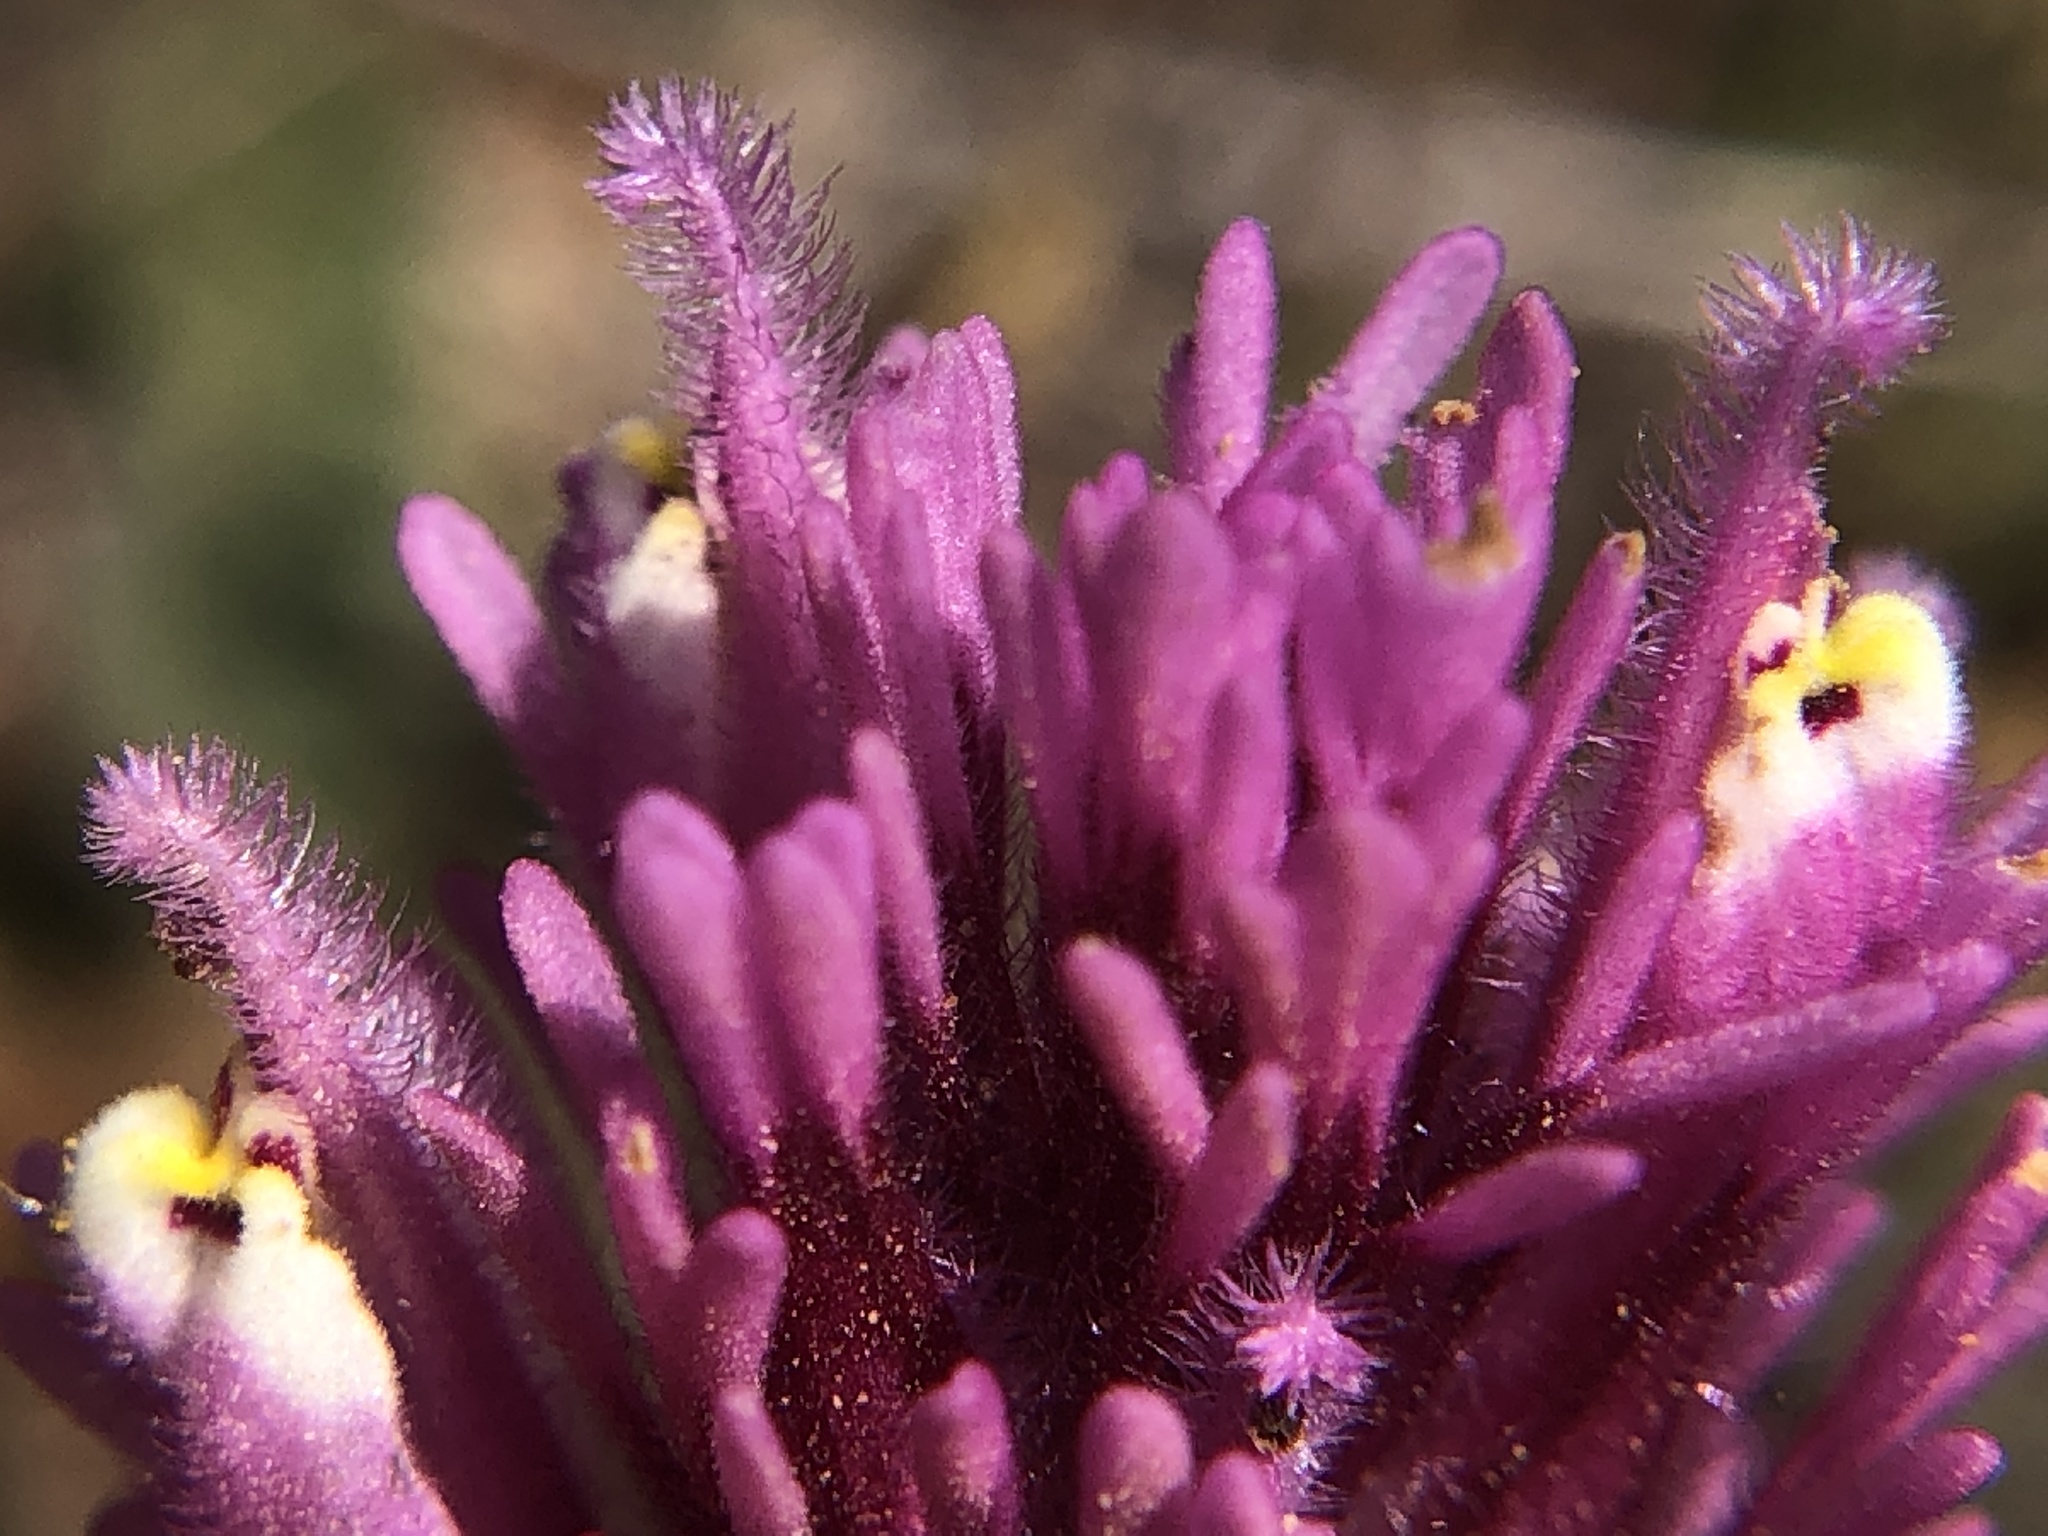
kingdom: Plantae
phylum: Tracheophyta
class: Magnoliopsida
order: Lamiales
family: Orobanchaceae
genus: Castilleja
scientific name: Castilleja exserta
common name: Purple owl-clover
